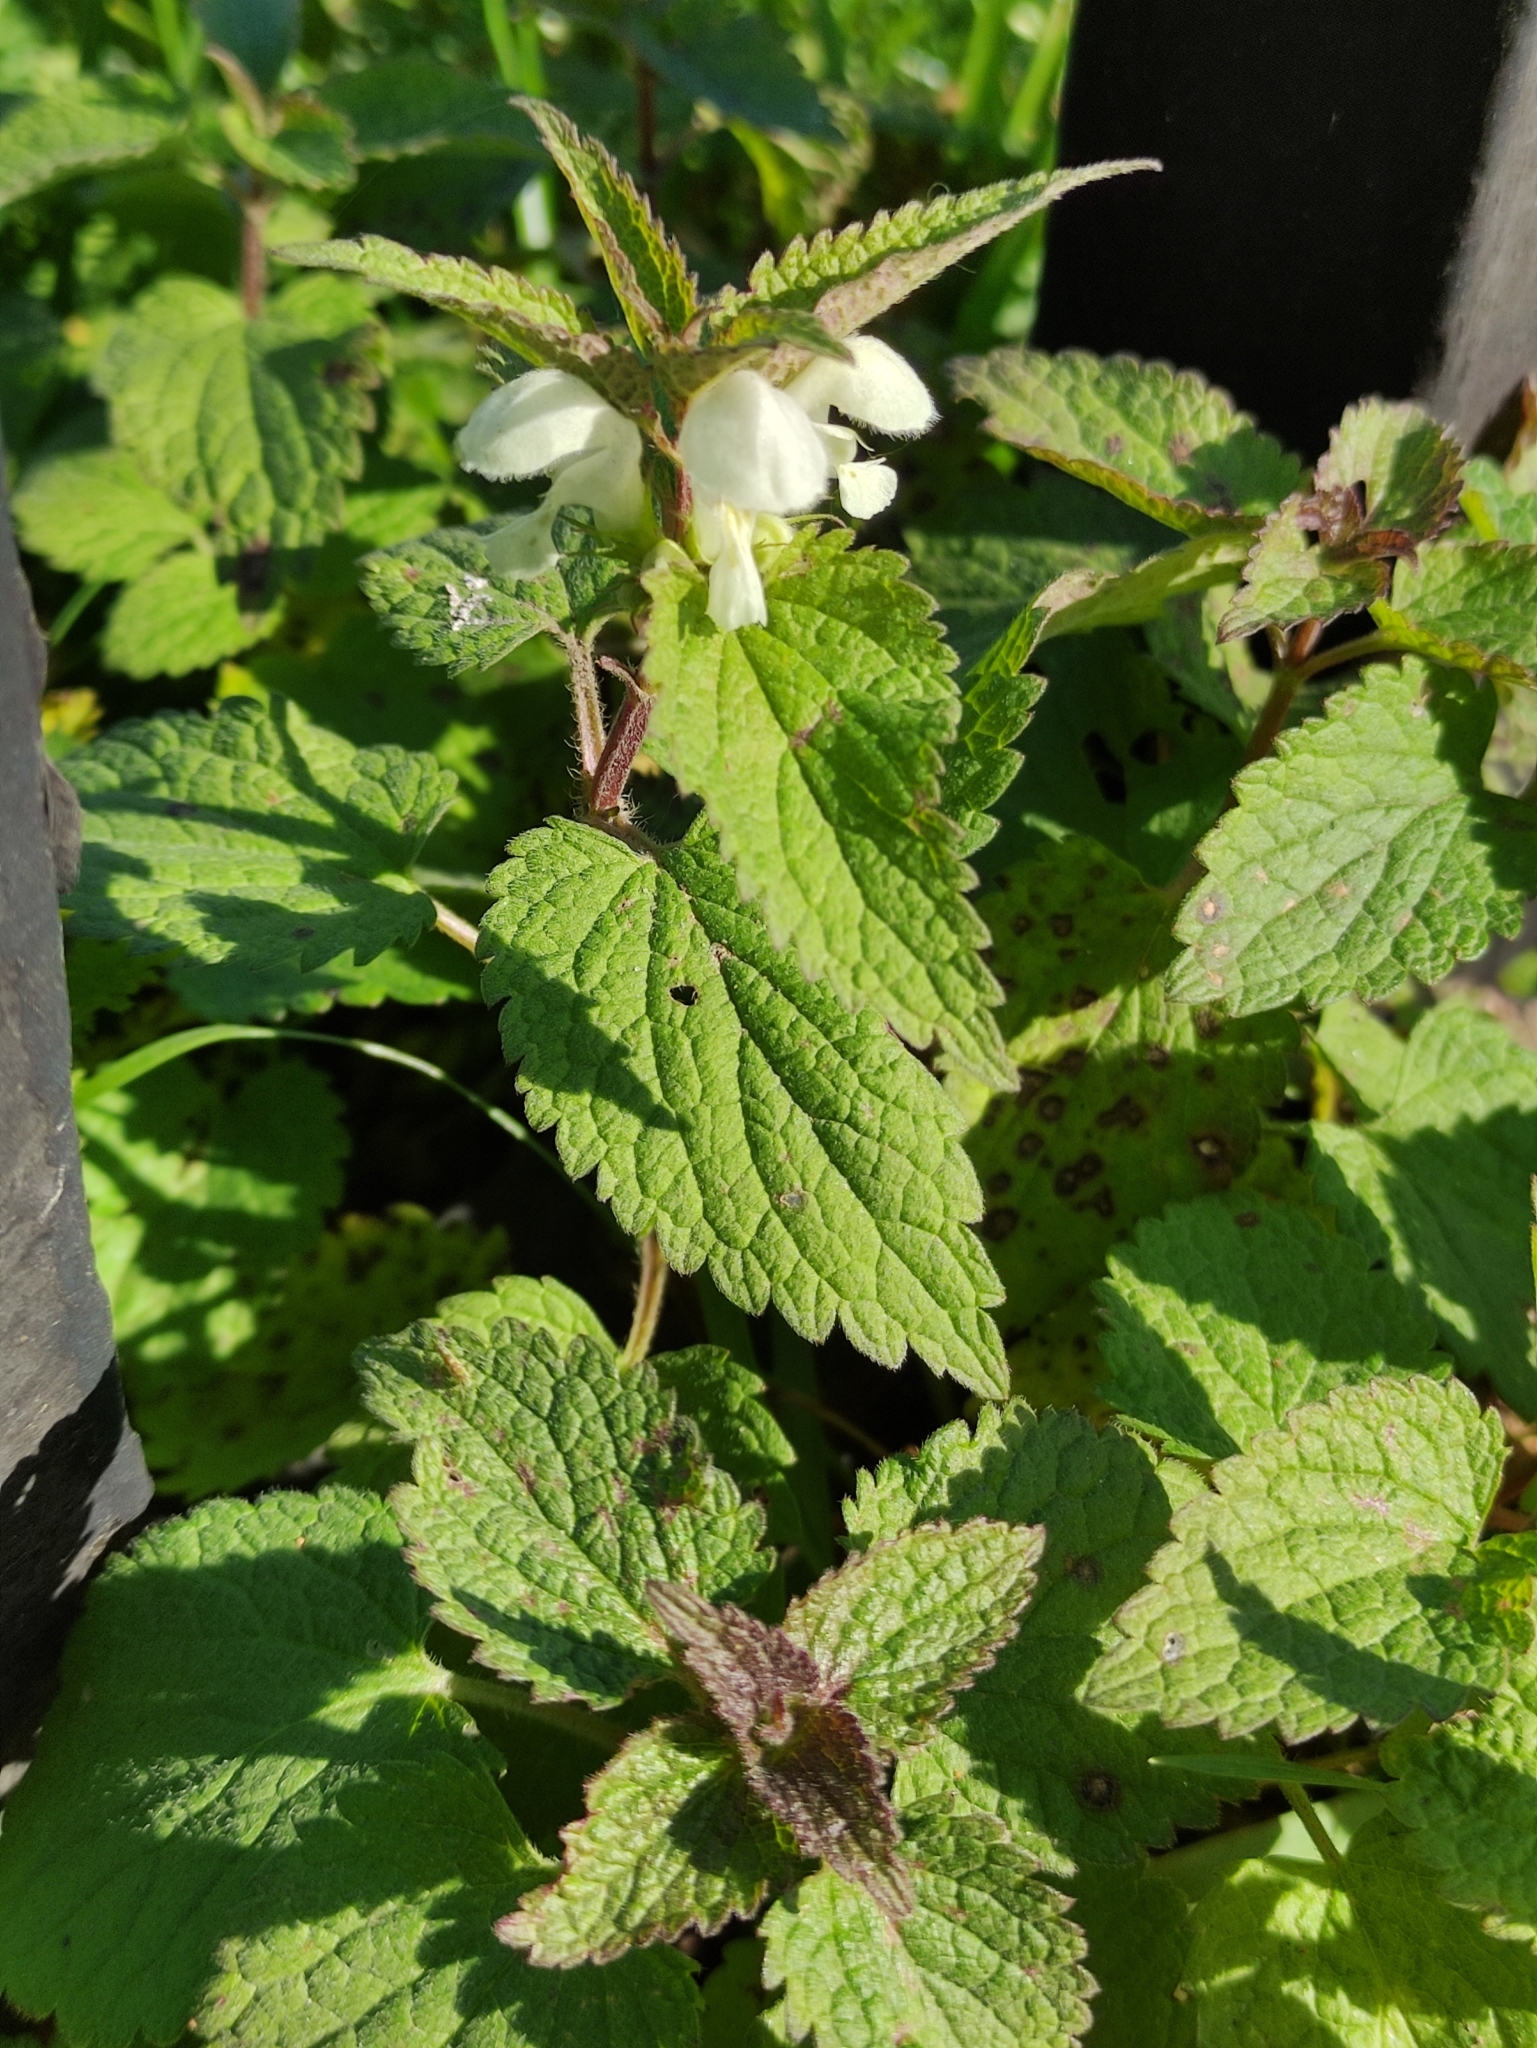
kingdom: Plantae
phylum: Tracheophyta
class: Magnoliopsida
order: Lamiales
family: Lamiaceae
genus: Lamium
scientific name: Lamium album
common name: White dead-nettle
